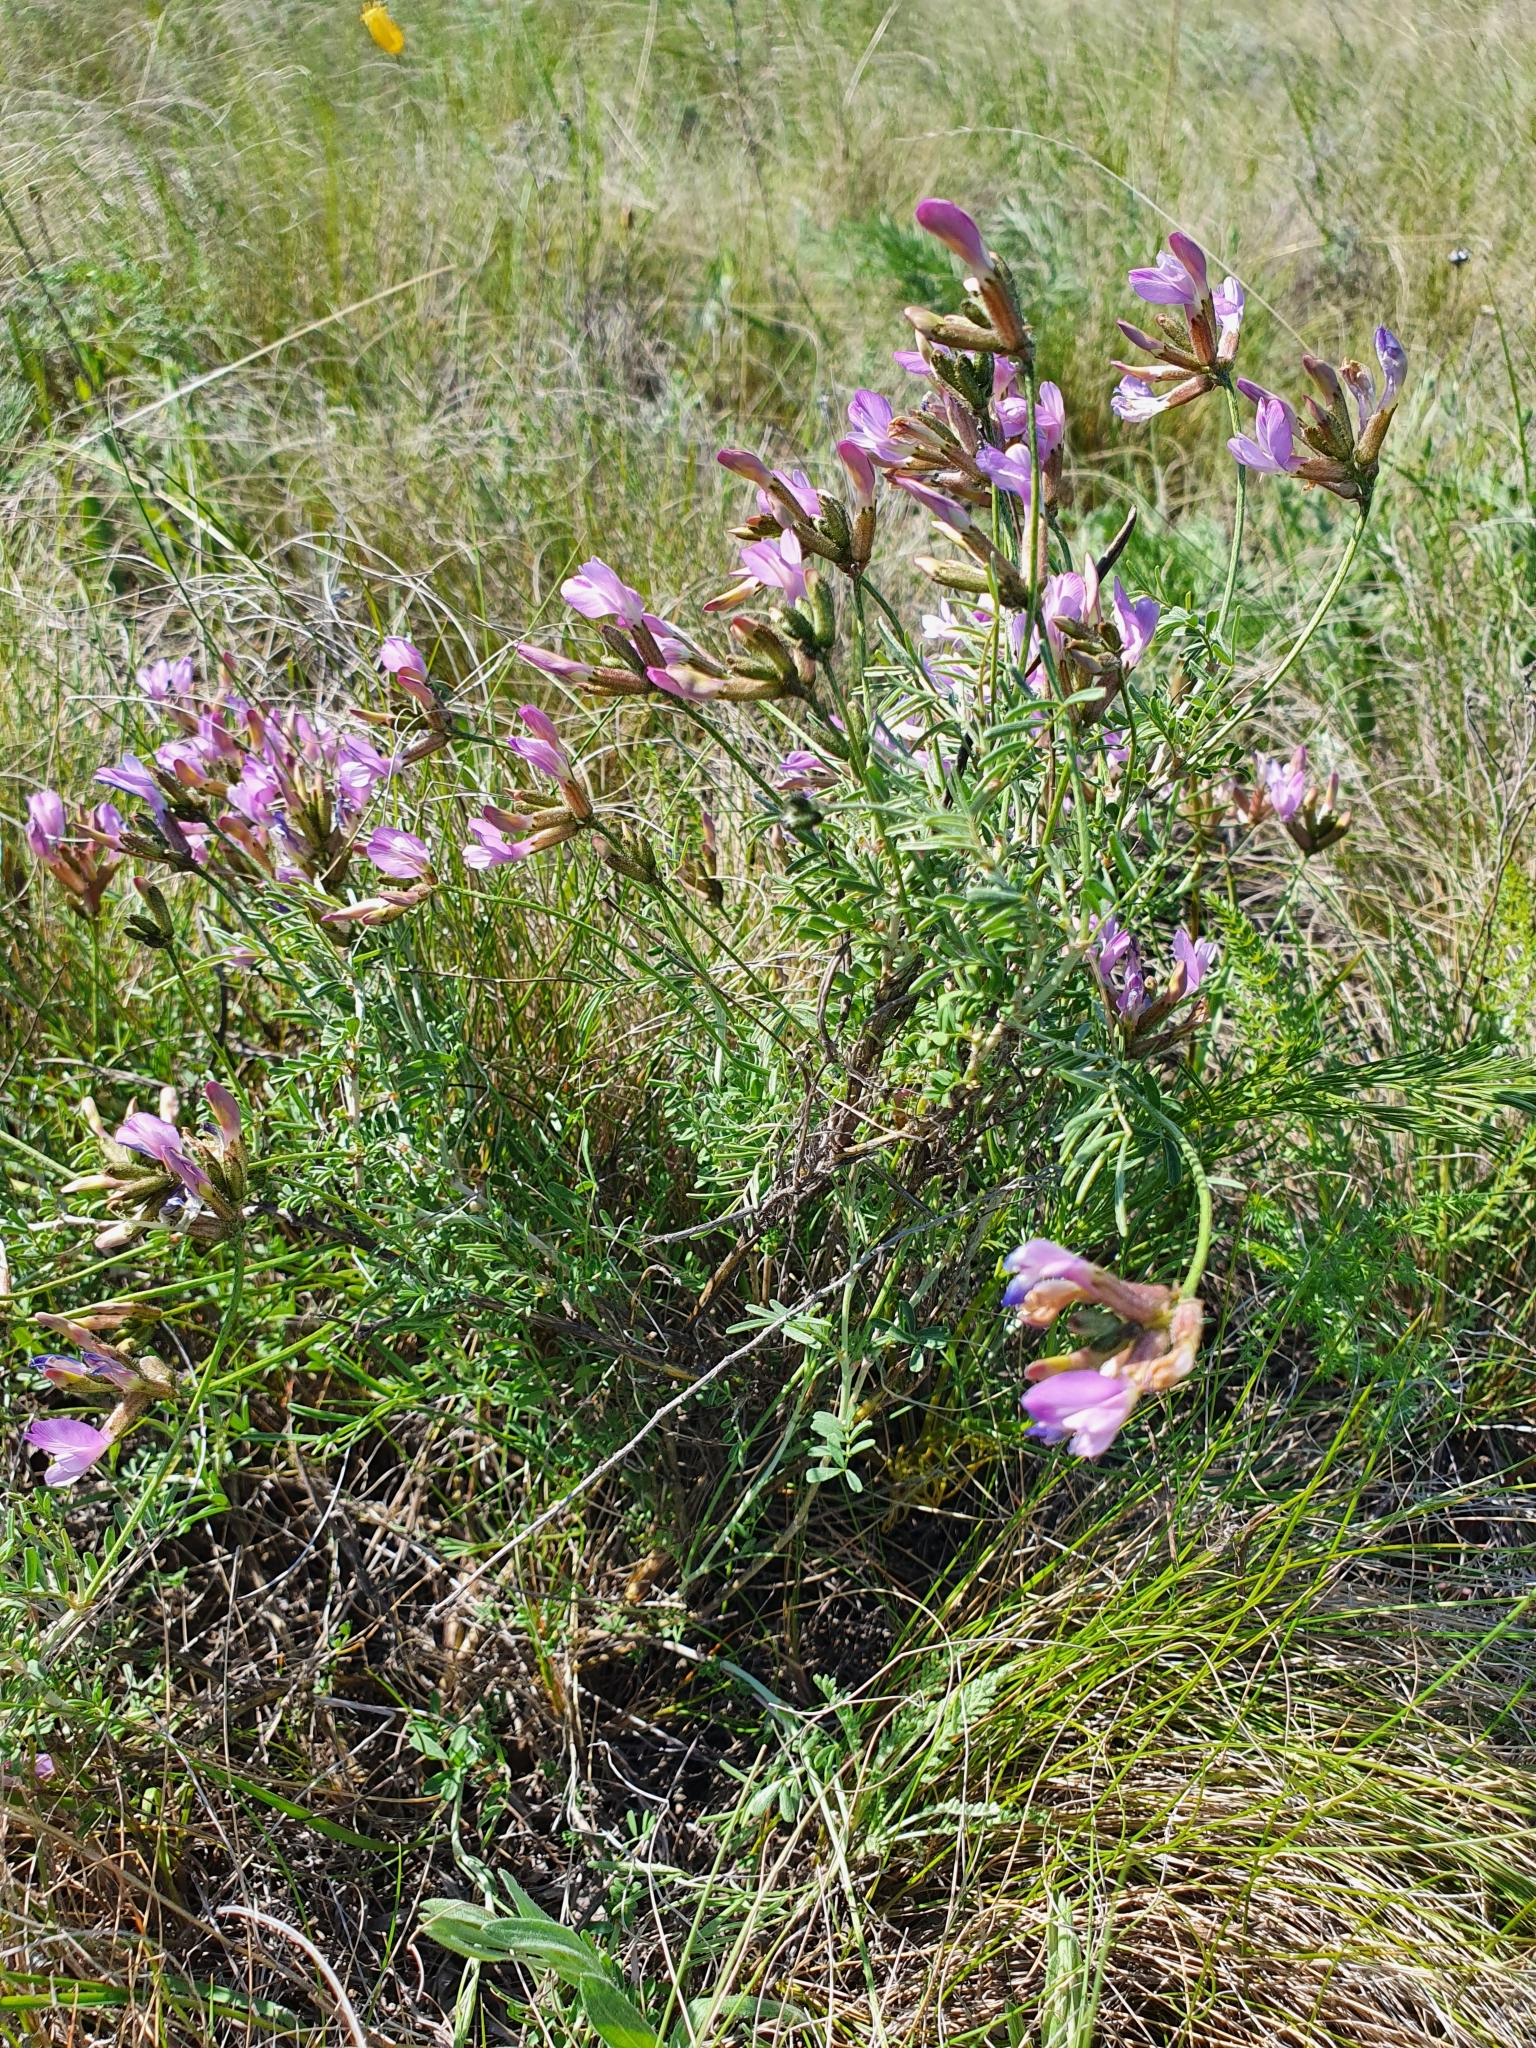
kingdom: Plantae
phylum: Tracheophyta
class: Magnoliopsida
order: Fabales
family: Fabaceae
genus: Astragalus
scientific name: Astragalus temirensis
